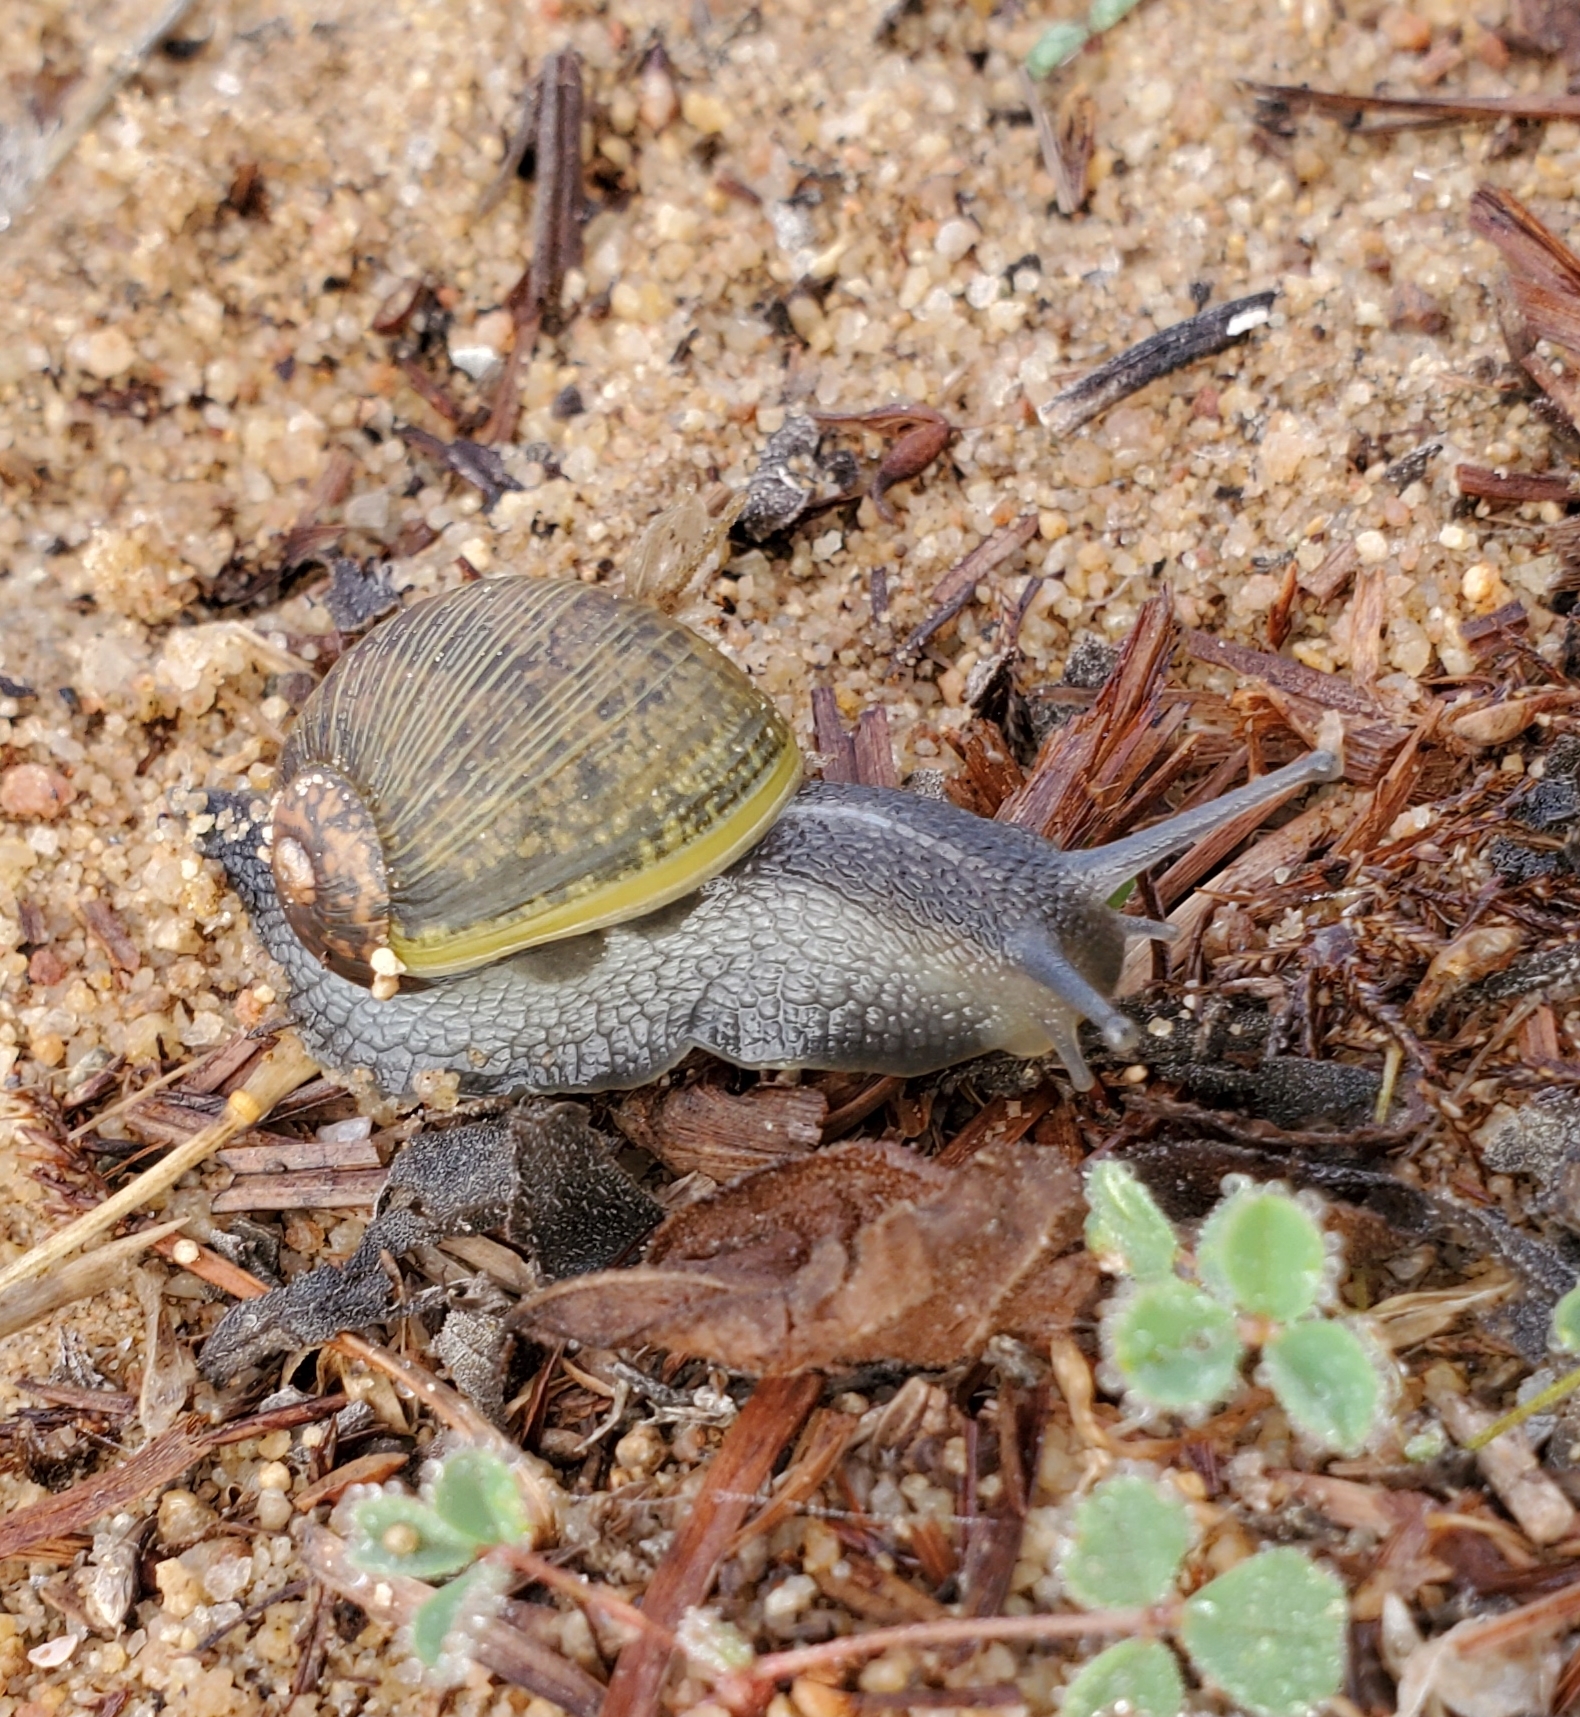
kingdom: Animalia
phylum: Mollusca
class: Gastropoda
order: Stylommatophora
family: Helicidae
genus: Cantareus
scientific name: Cantareus apertus
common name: Green gardensnail
